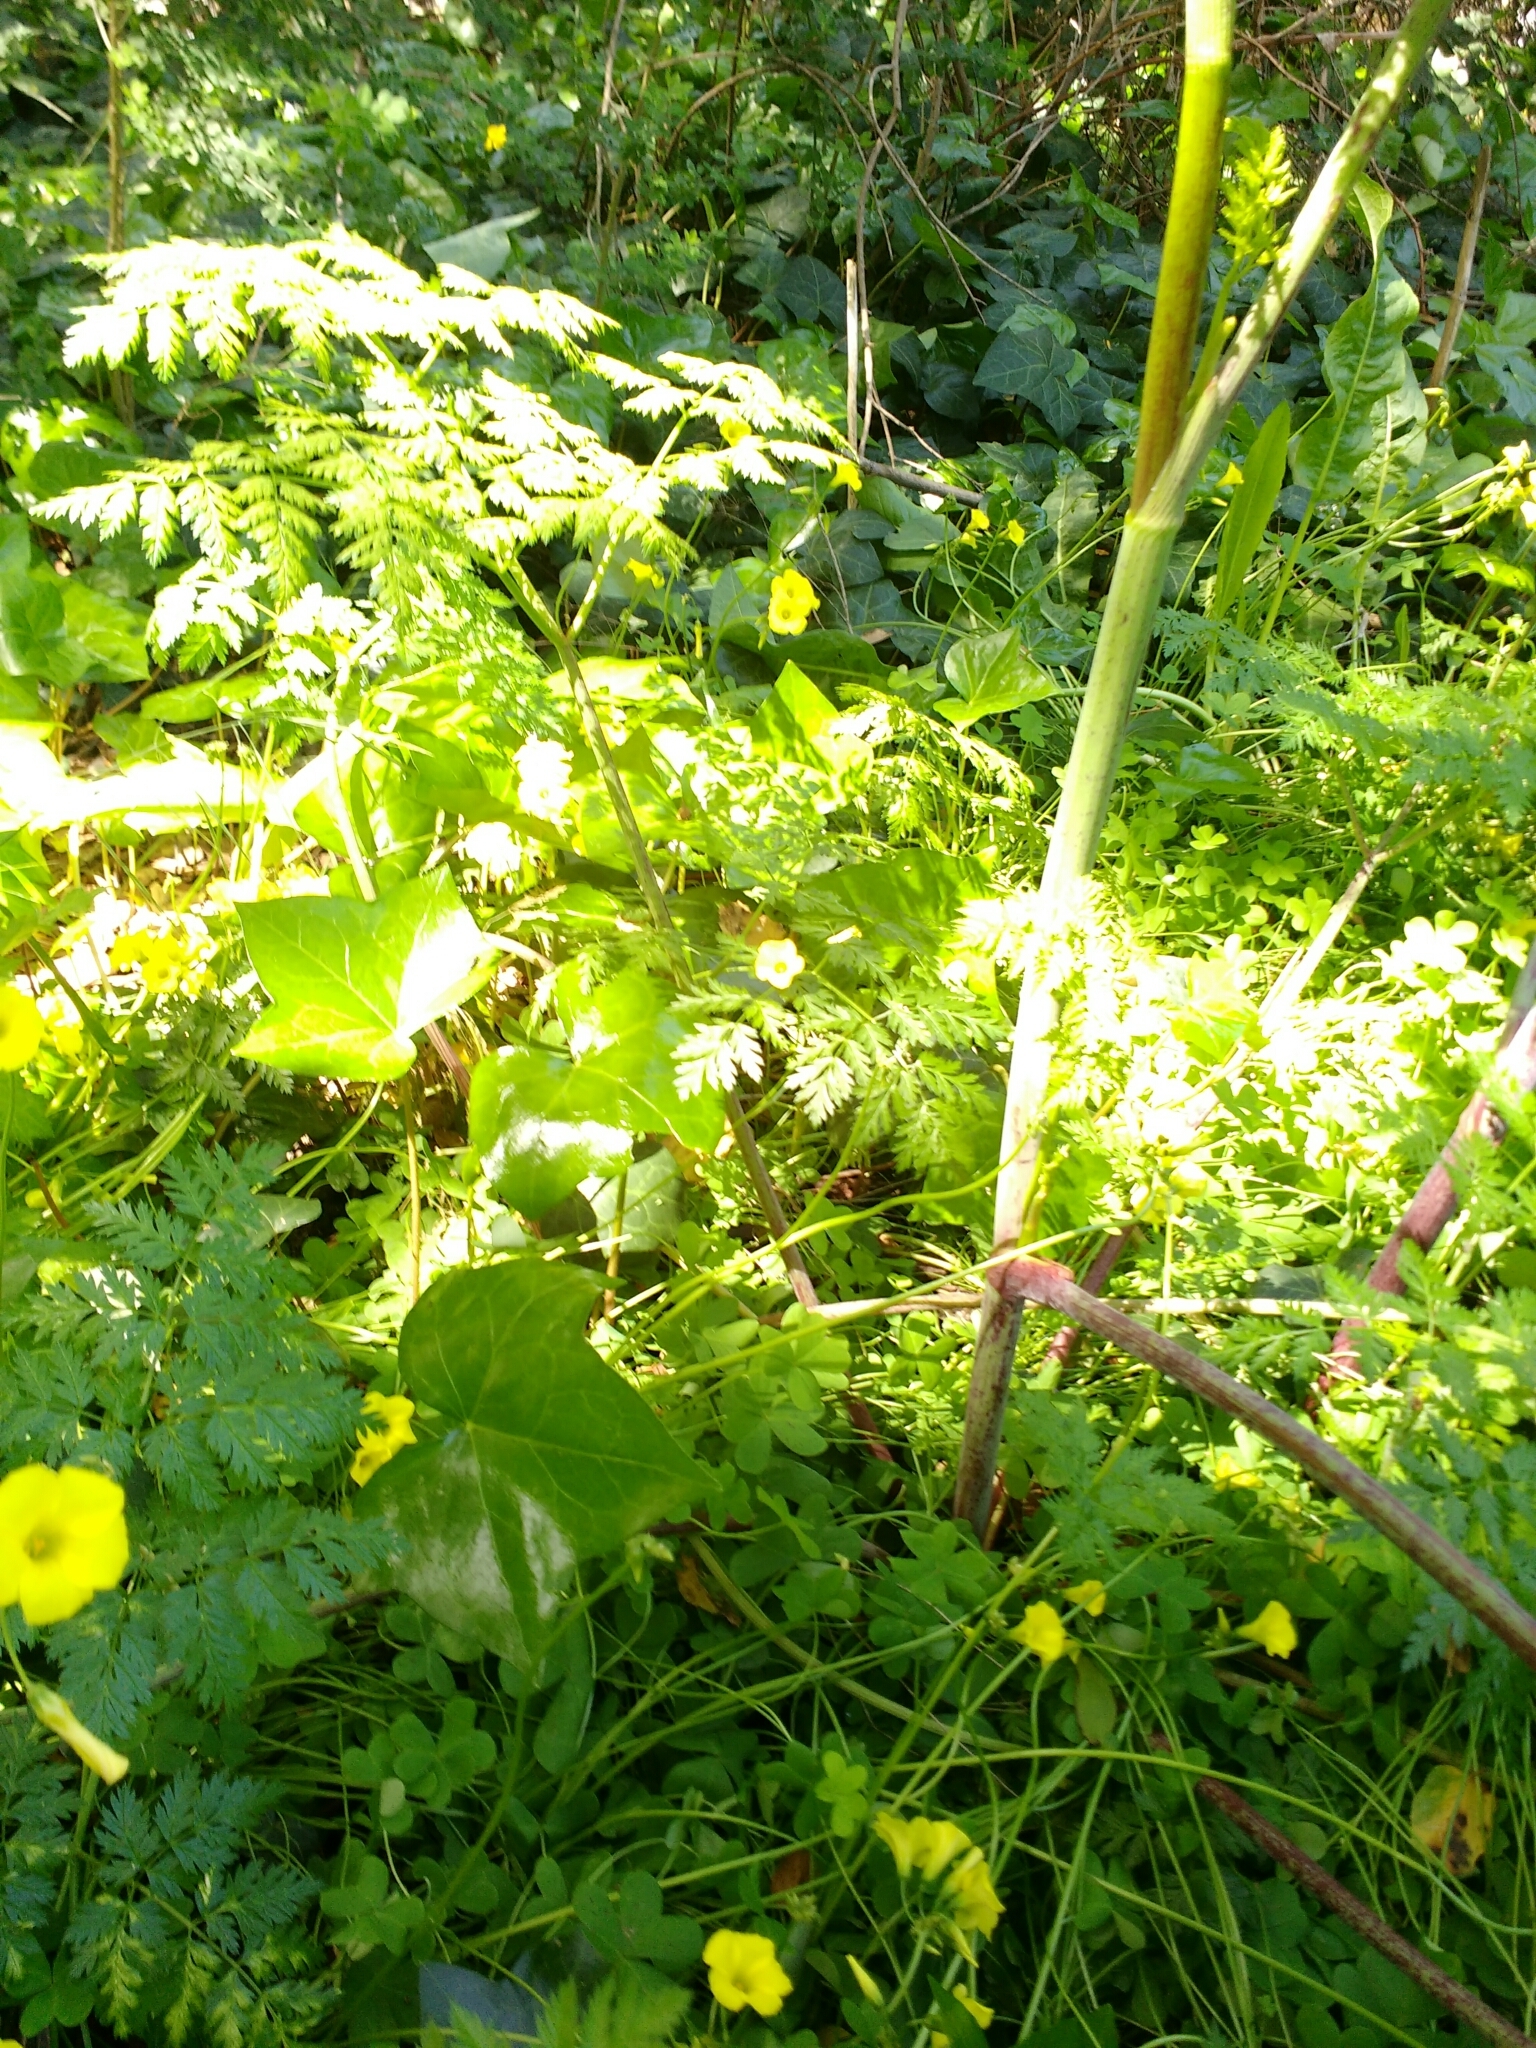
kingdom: Plantae
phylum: Tracheophyta
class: Magnoliopsida
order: Apiales
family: Apiaceae
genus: Conium
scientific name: Conium maculatum
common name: Hemlock
